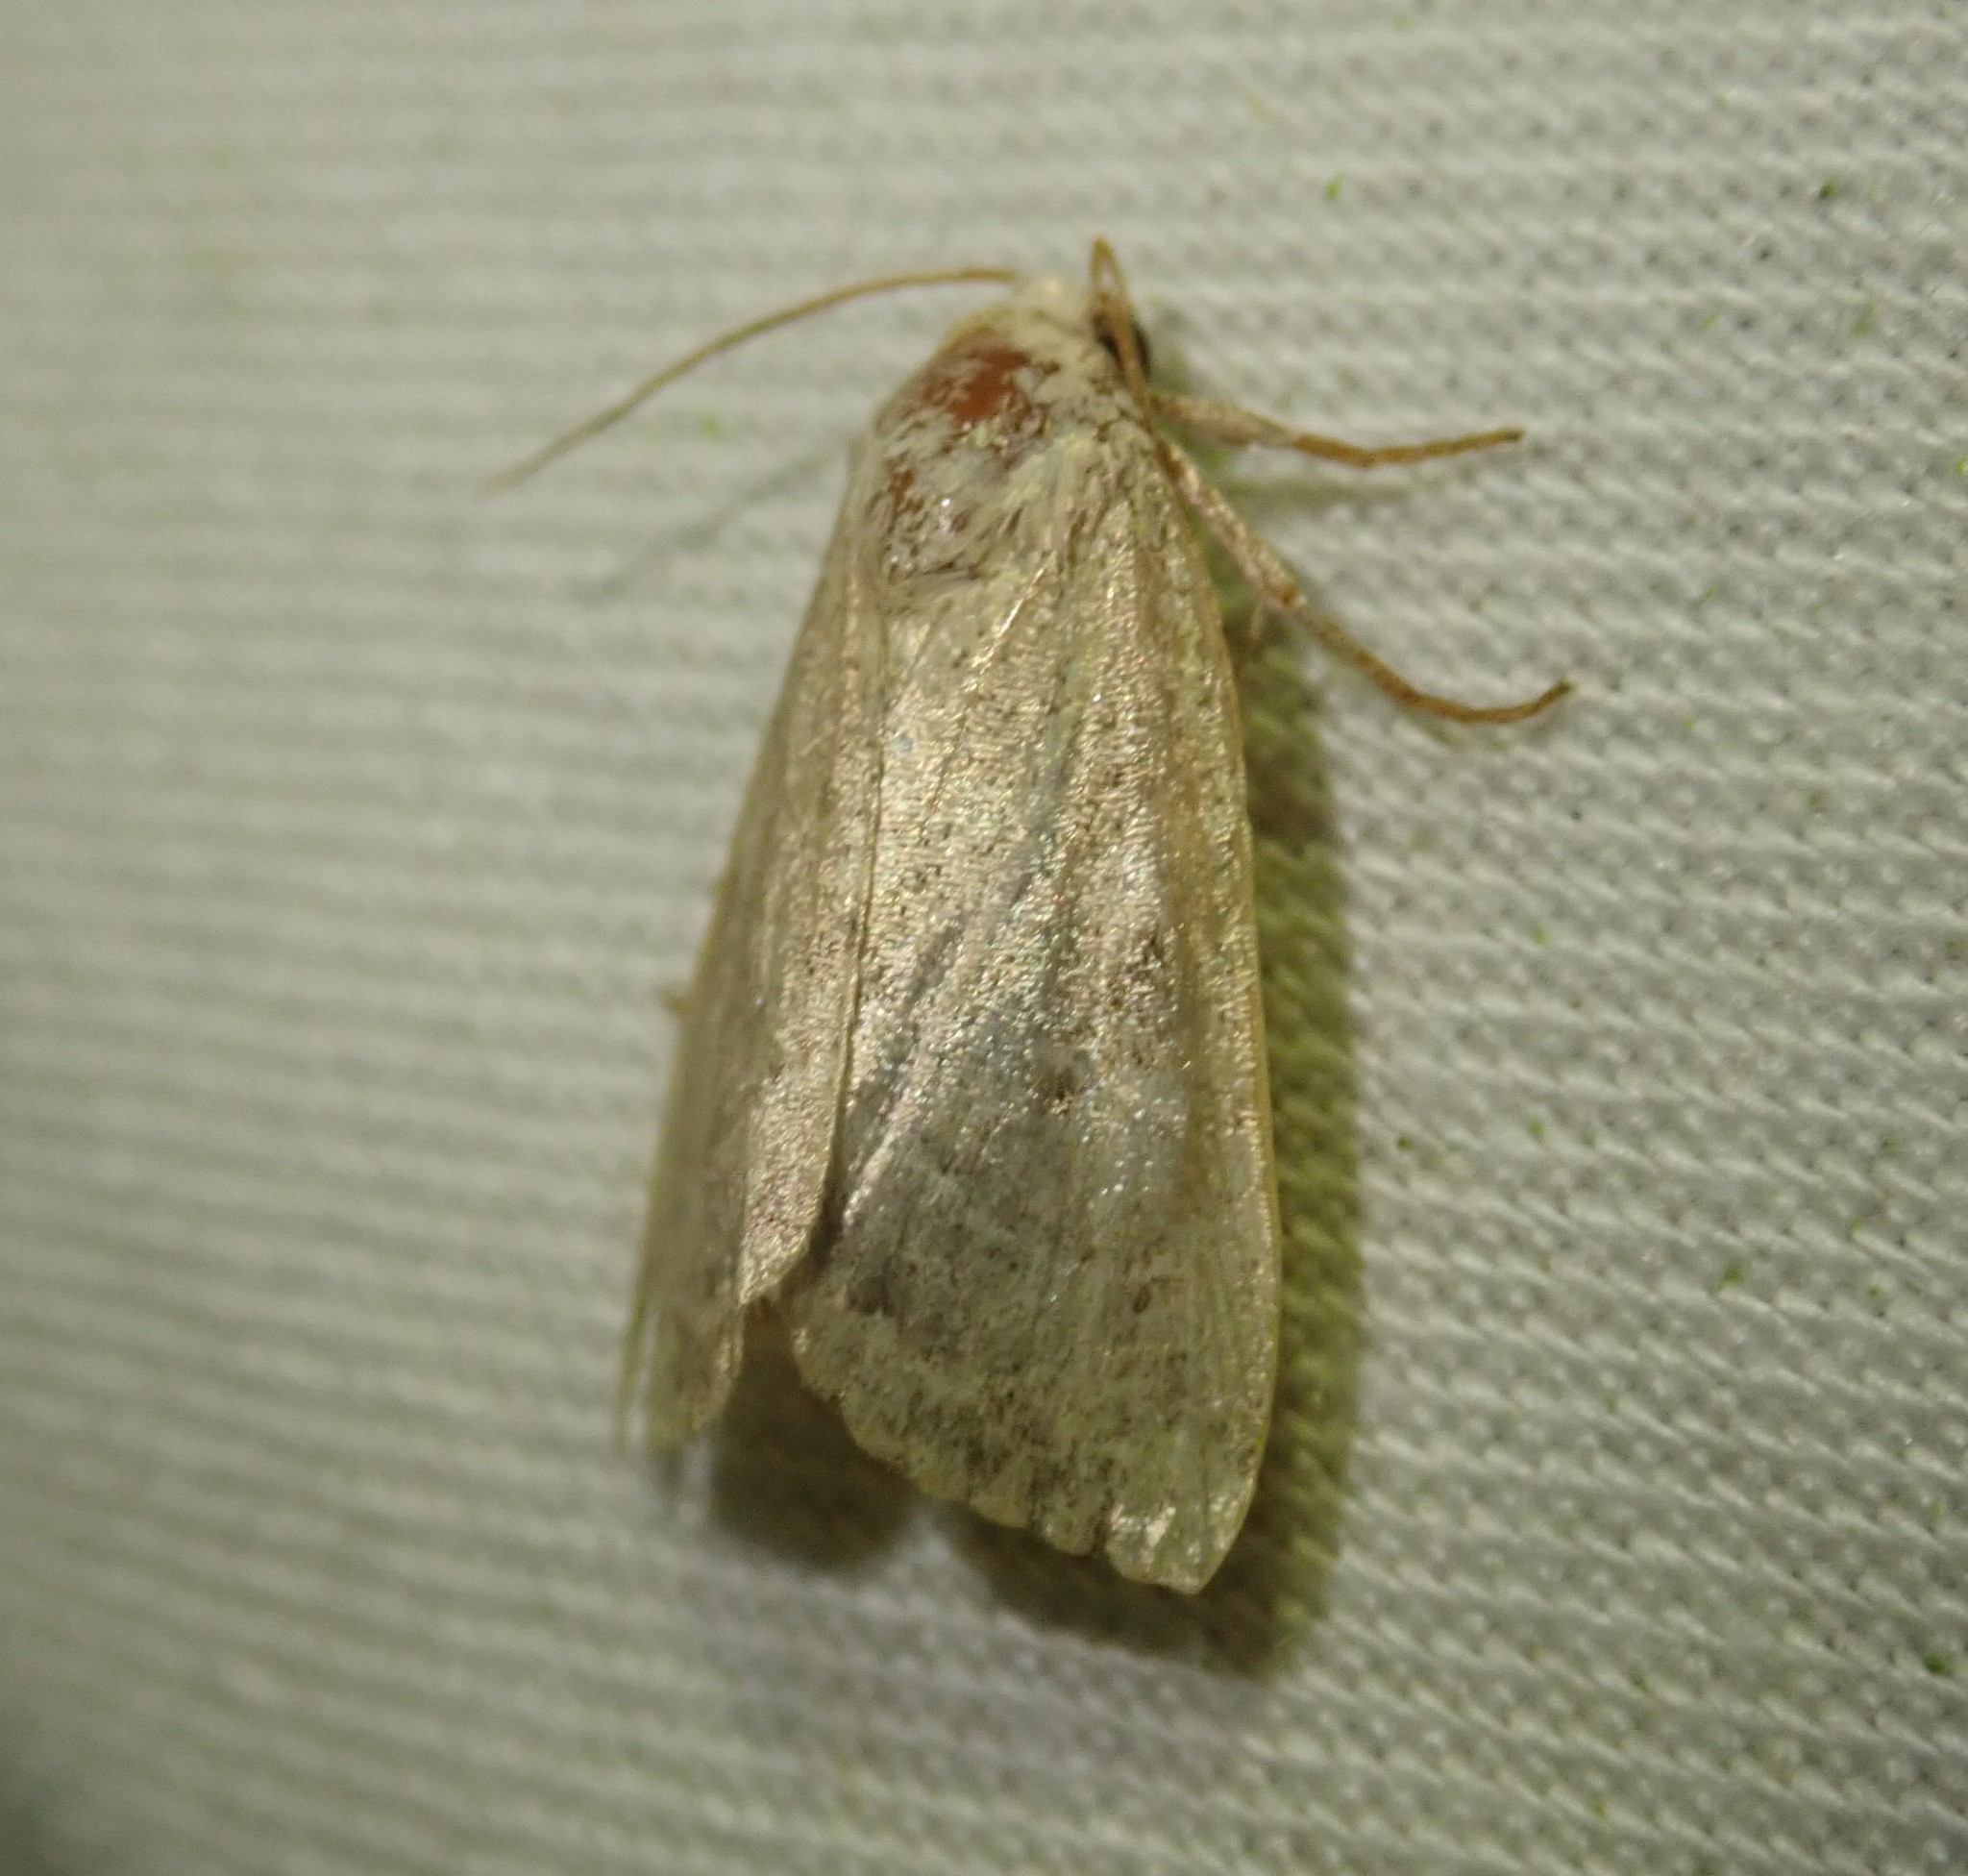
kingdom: Animalia
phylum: Arthropoda
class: Insecta
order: Lepidoptera
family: Noctuidae
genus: Cosmia
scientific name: Cosmia trapezina
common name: Dun-bar
